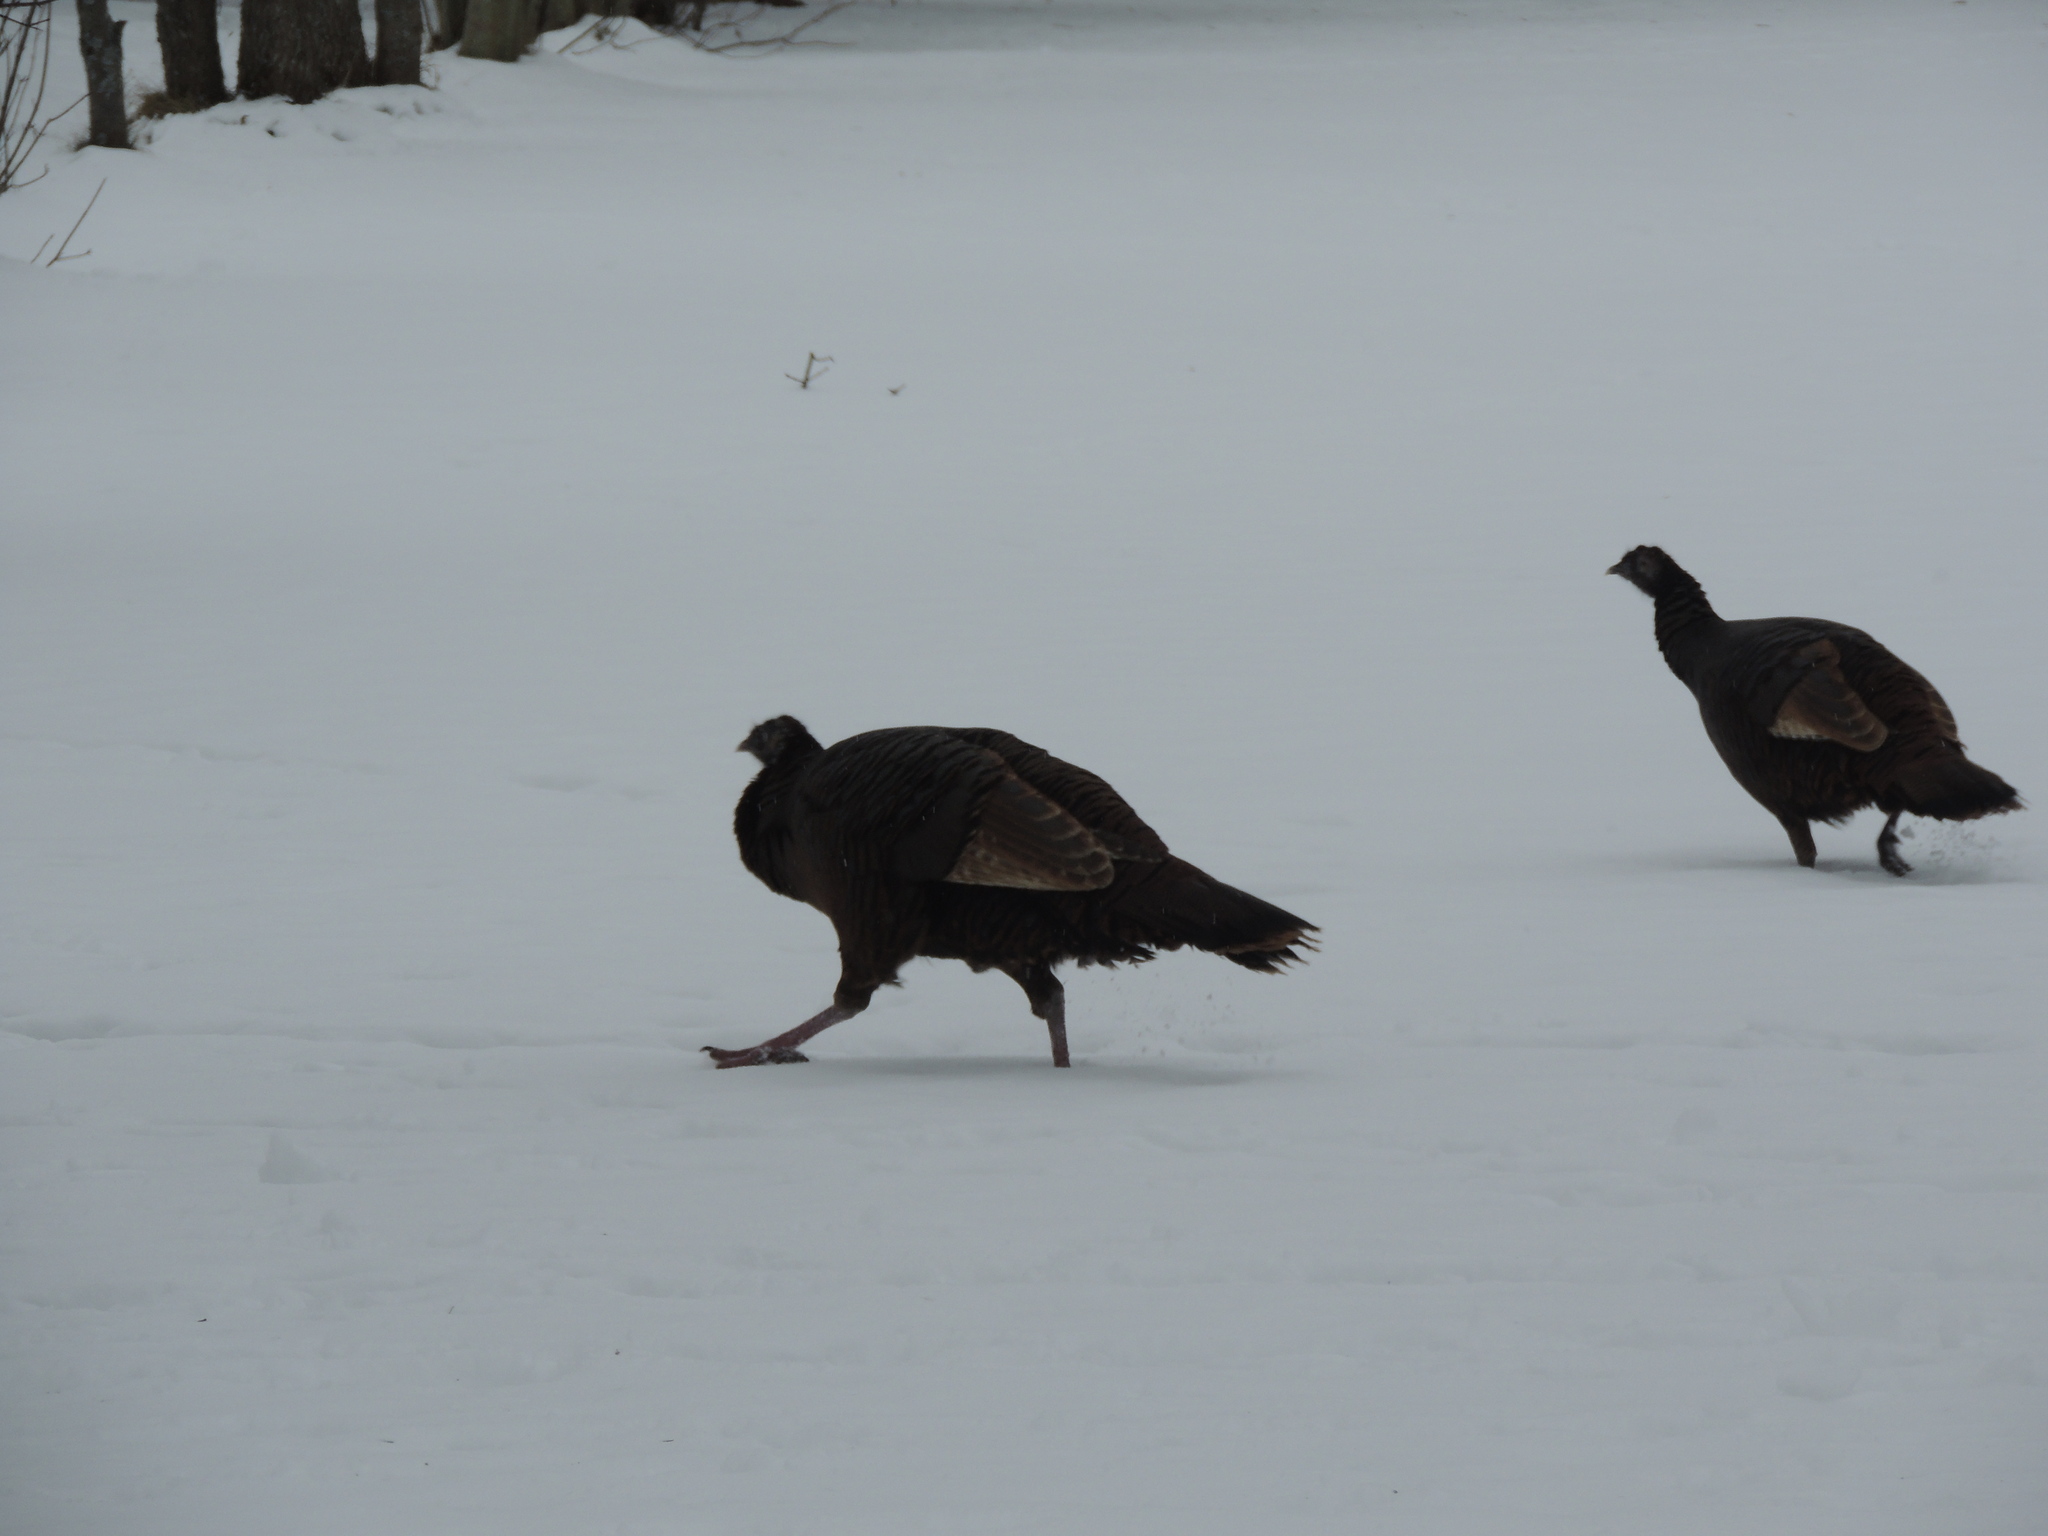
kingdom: Animalia
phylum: Chordata
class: Aves
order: Galliformes
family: Phasianidae
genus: Meleagris
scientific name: Meleagris gallopavo
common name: Wild turkey
